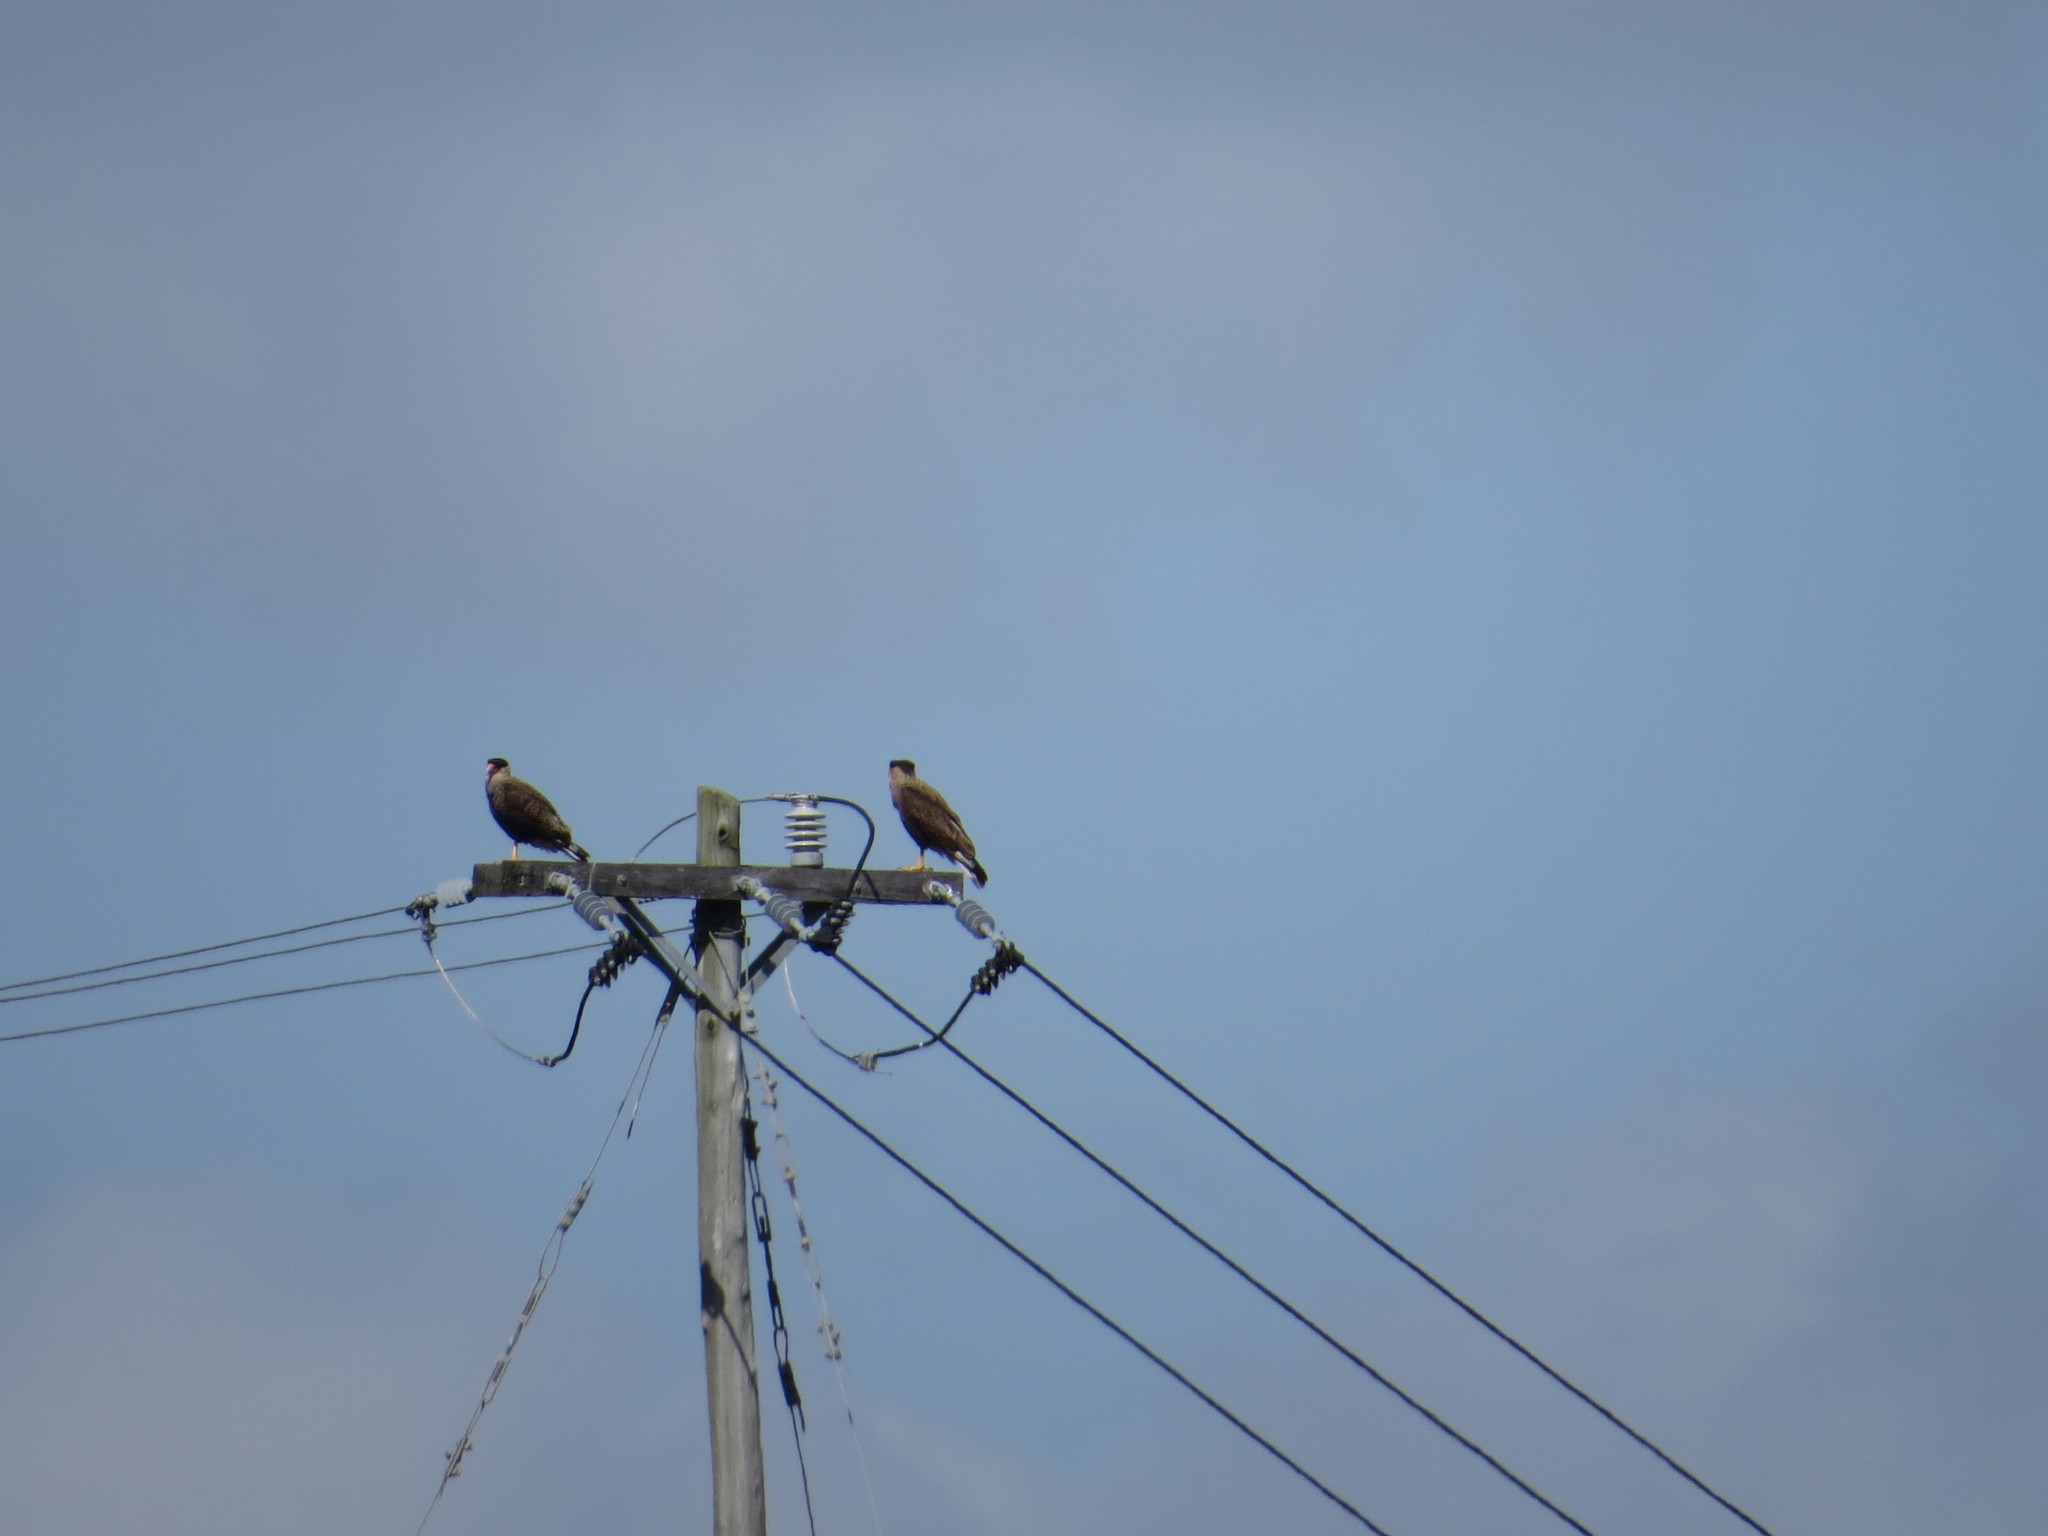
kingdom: Animalia
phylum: Chordata
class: Aves
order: Falconiformes
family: Falconidae
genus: Caracara
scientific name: Caracara plancus
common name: Southern caracara
